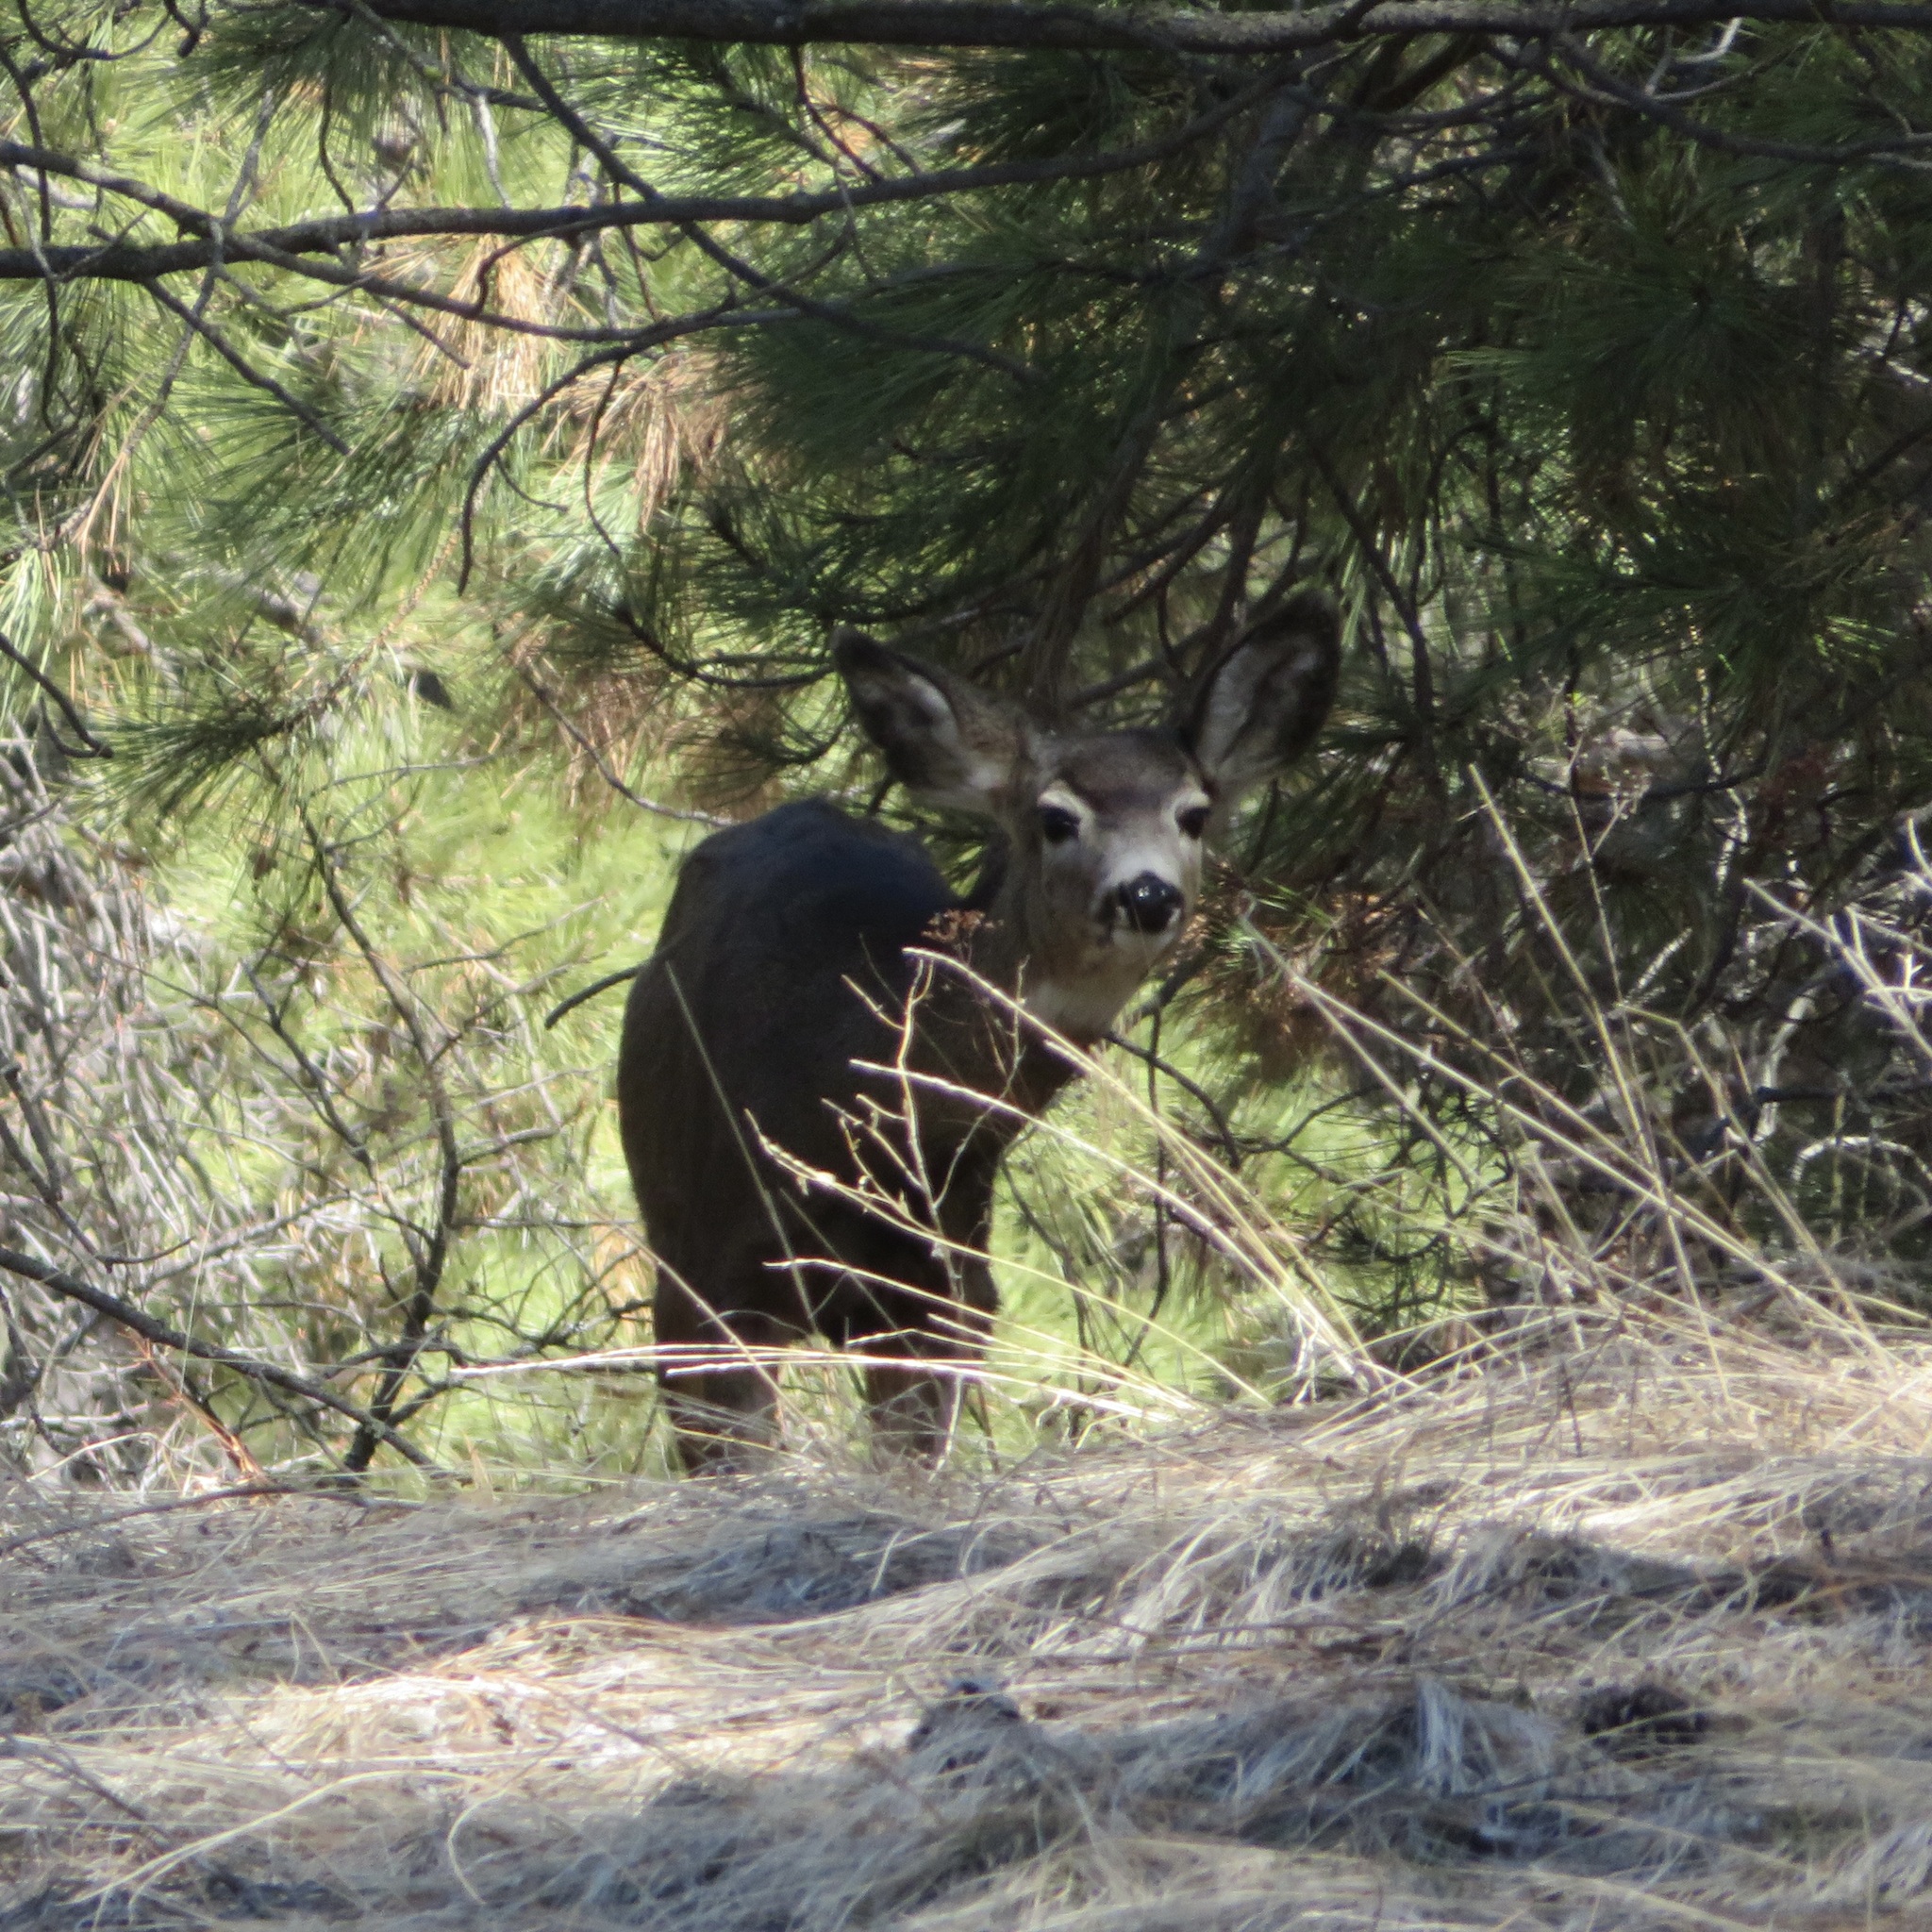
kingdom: Animalia
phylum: Chordata
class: Mammalia
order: Artiodactyla
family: Cervidae
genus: Odocoileus
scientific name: Odocoileus hemionus
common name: Mule deer
